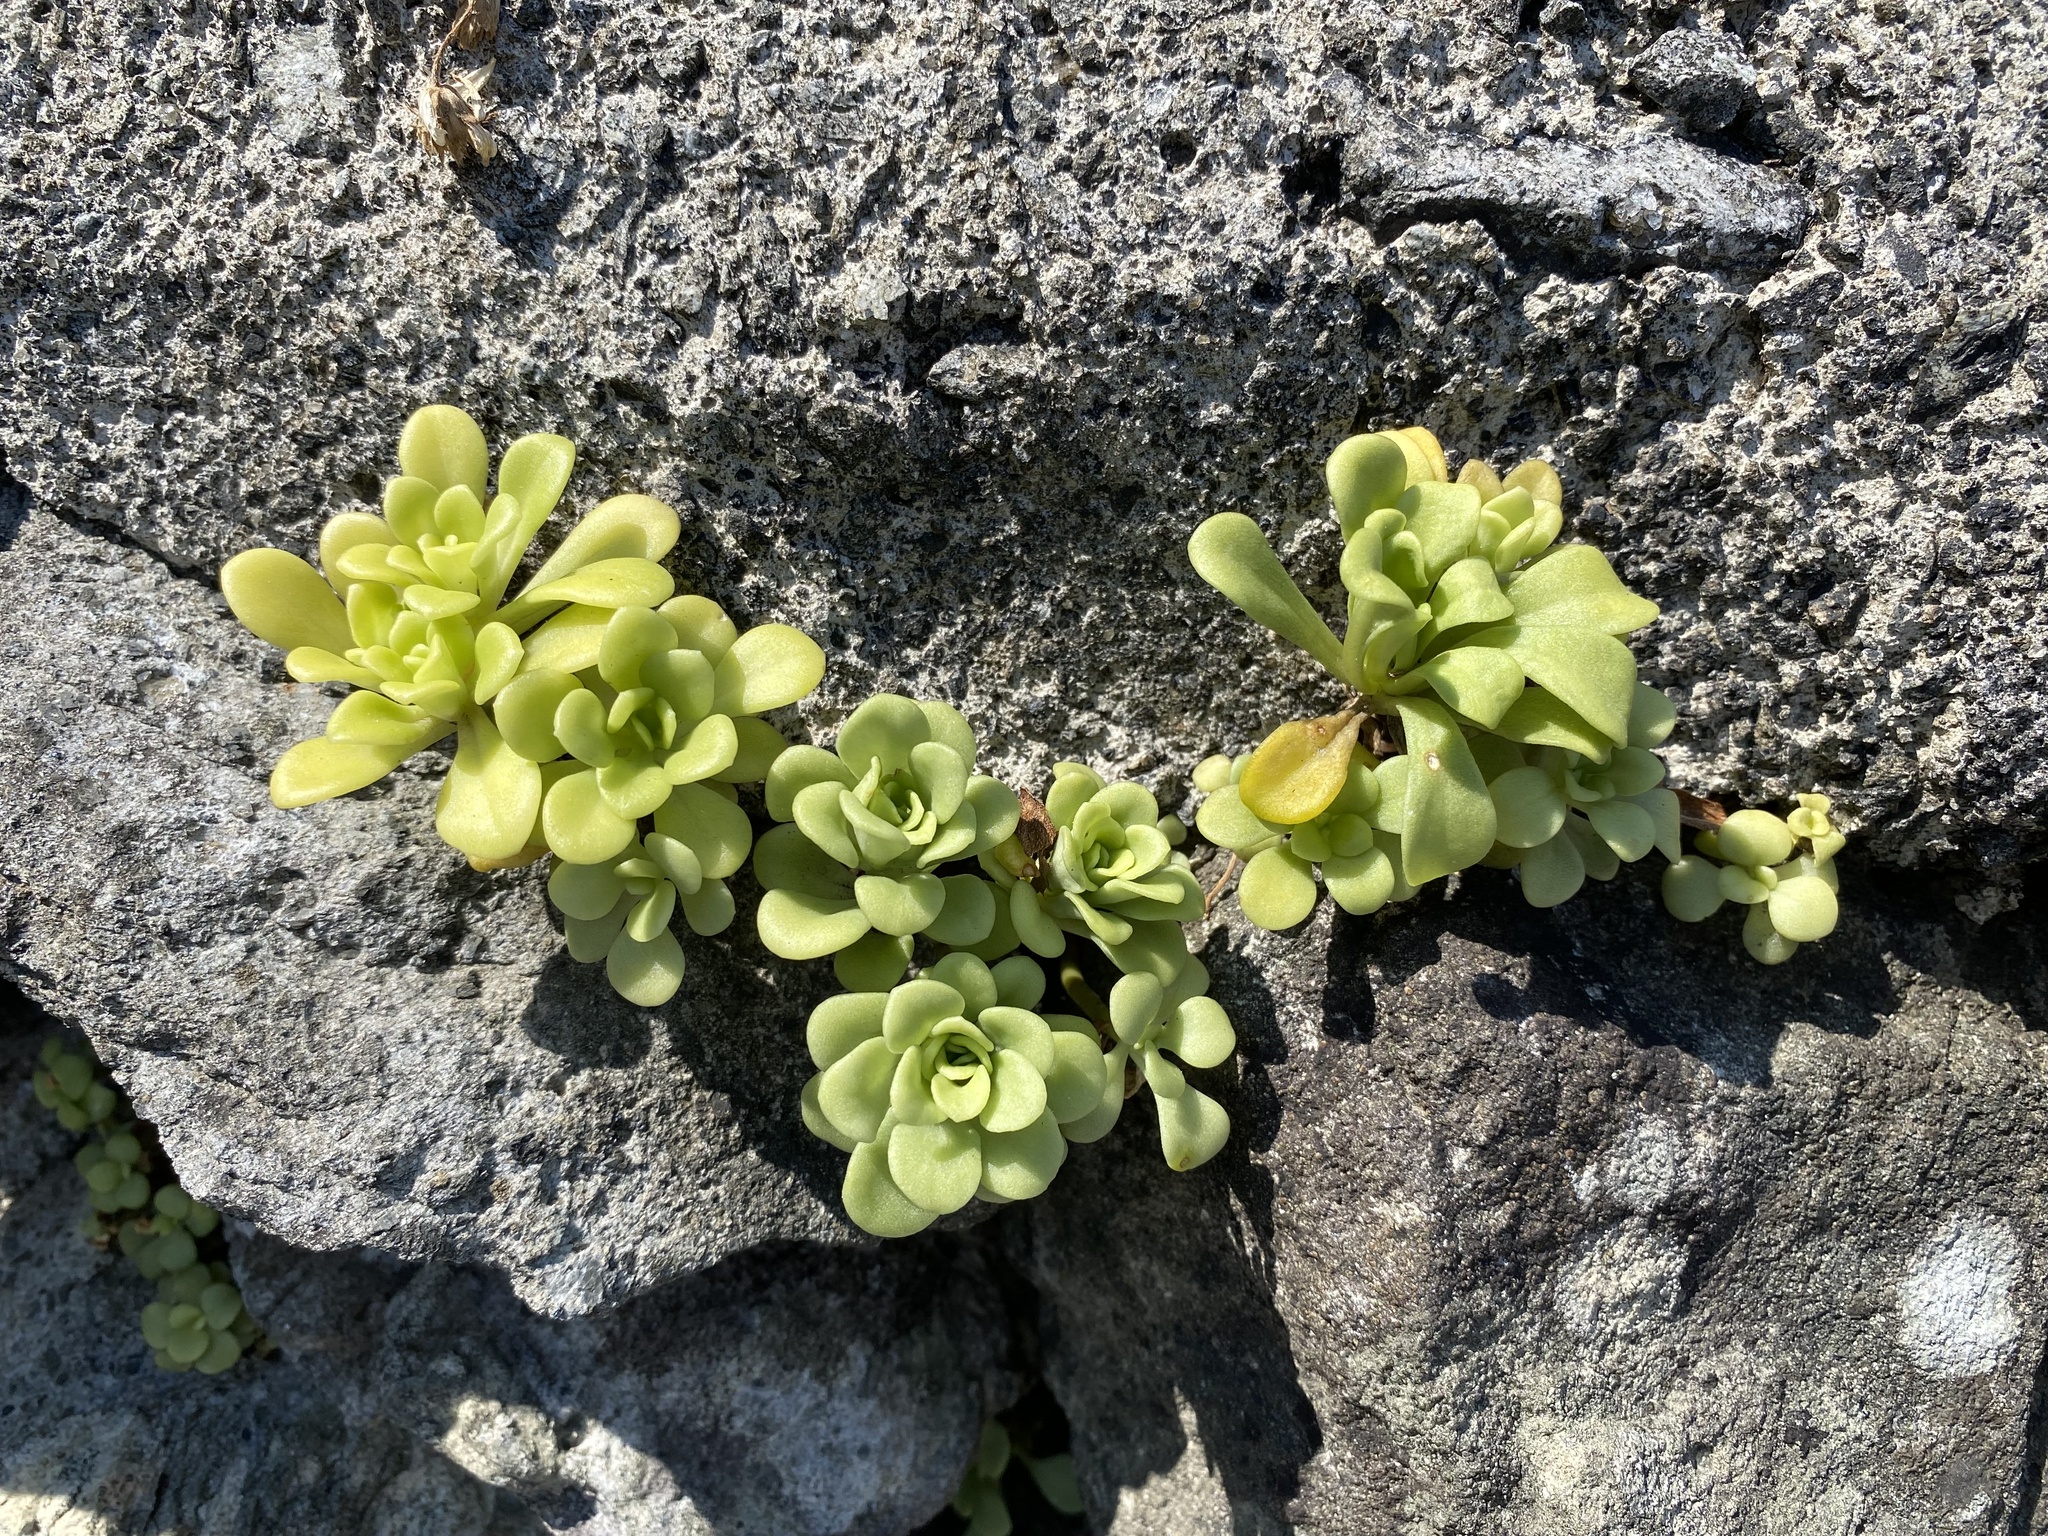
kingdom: Plantae
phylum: Tracheophyta
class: Magnoliopsida
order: Saxifragales
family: Crassulaceae
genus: Sedum
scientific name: Sedum formosanum
